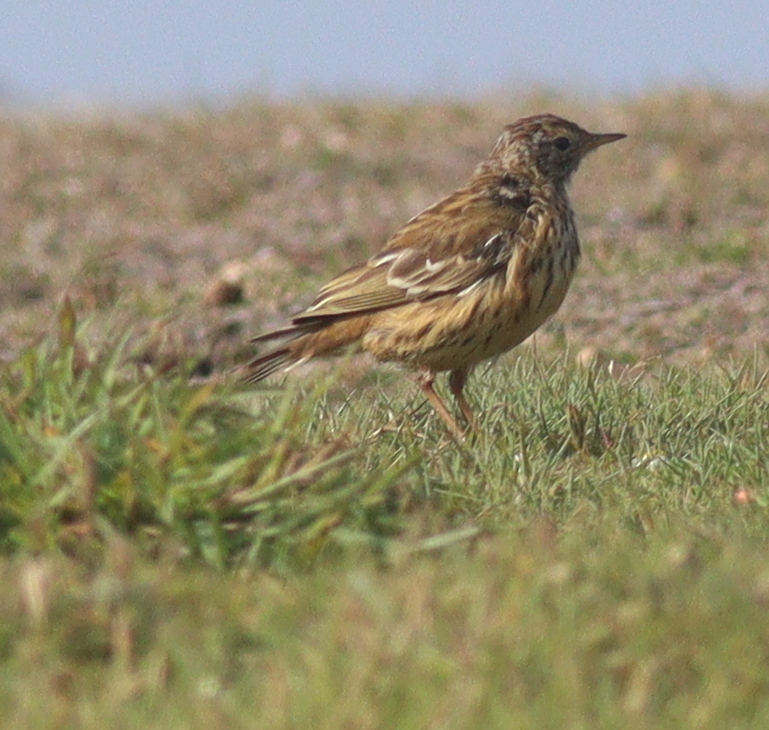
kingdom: Animalia
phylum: Chordata
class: Aves
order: Passeriformes
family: Motacillidae
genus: Anthus
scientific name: Anthus pratensis
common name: Meadow pipit
